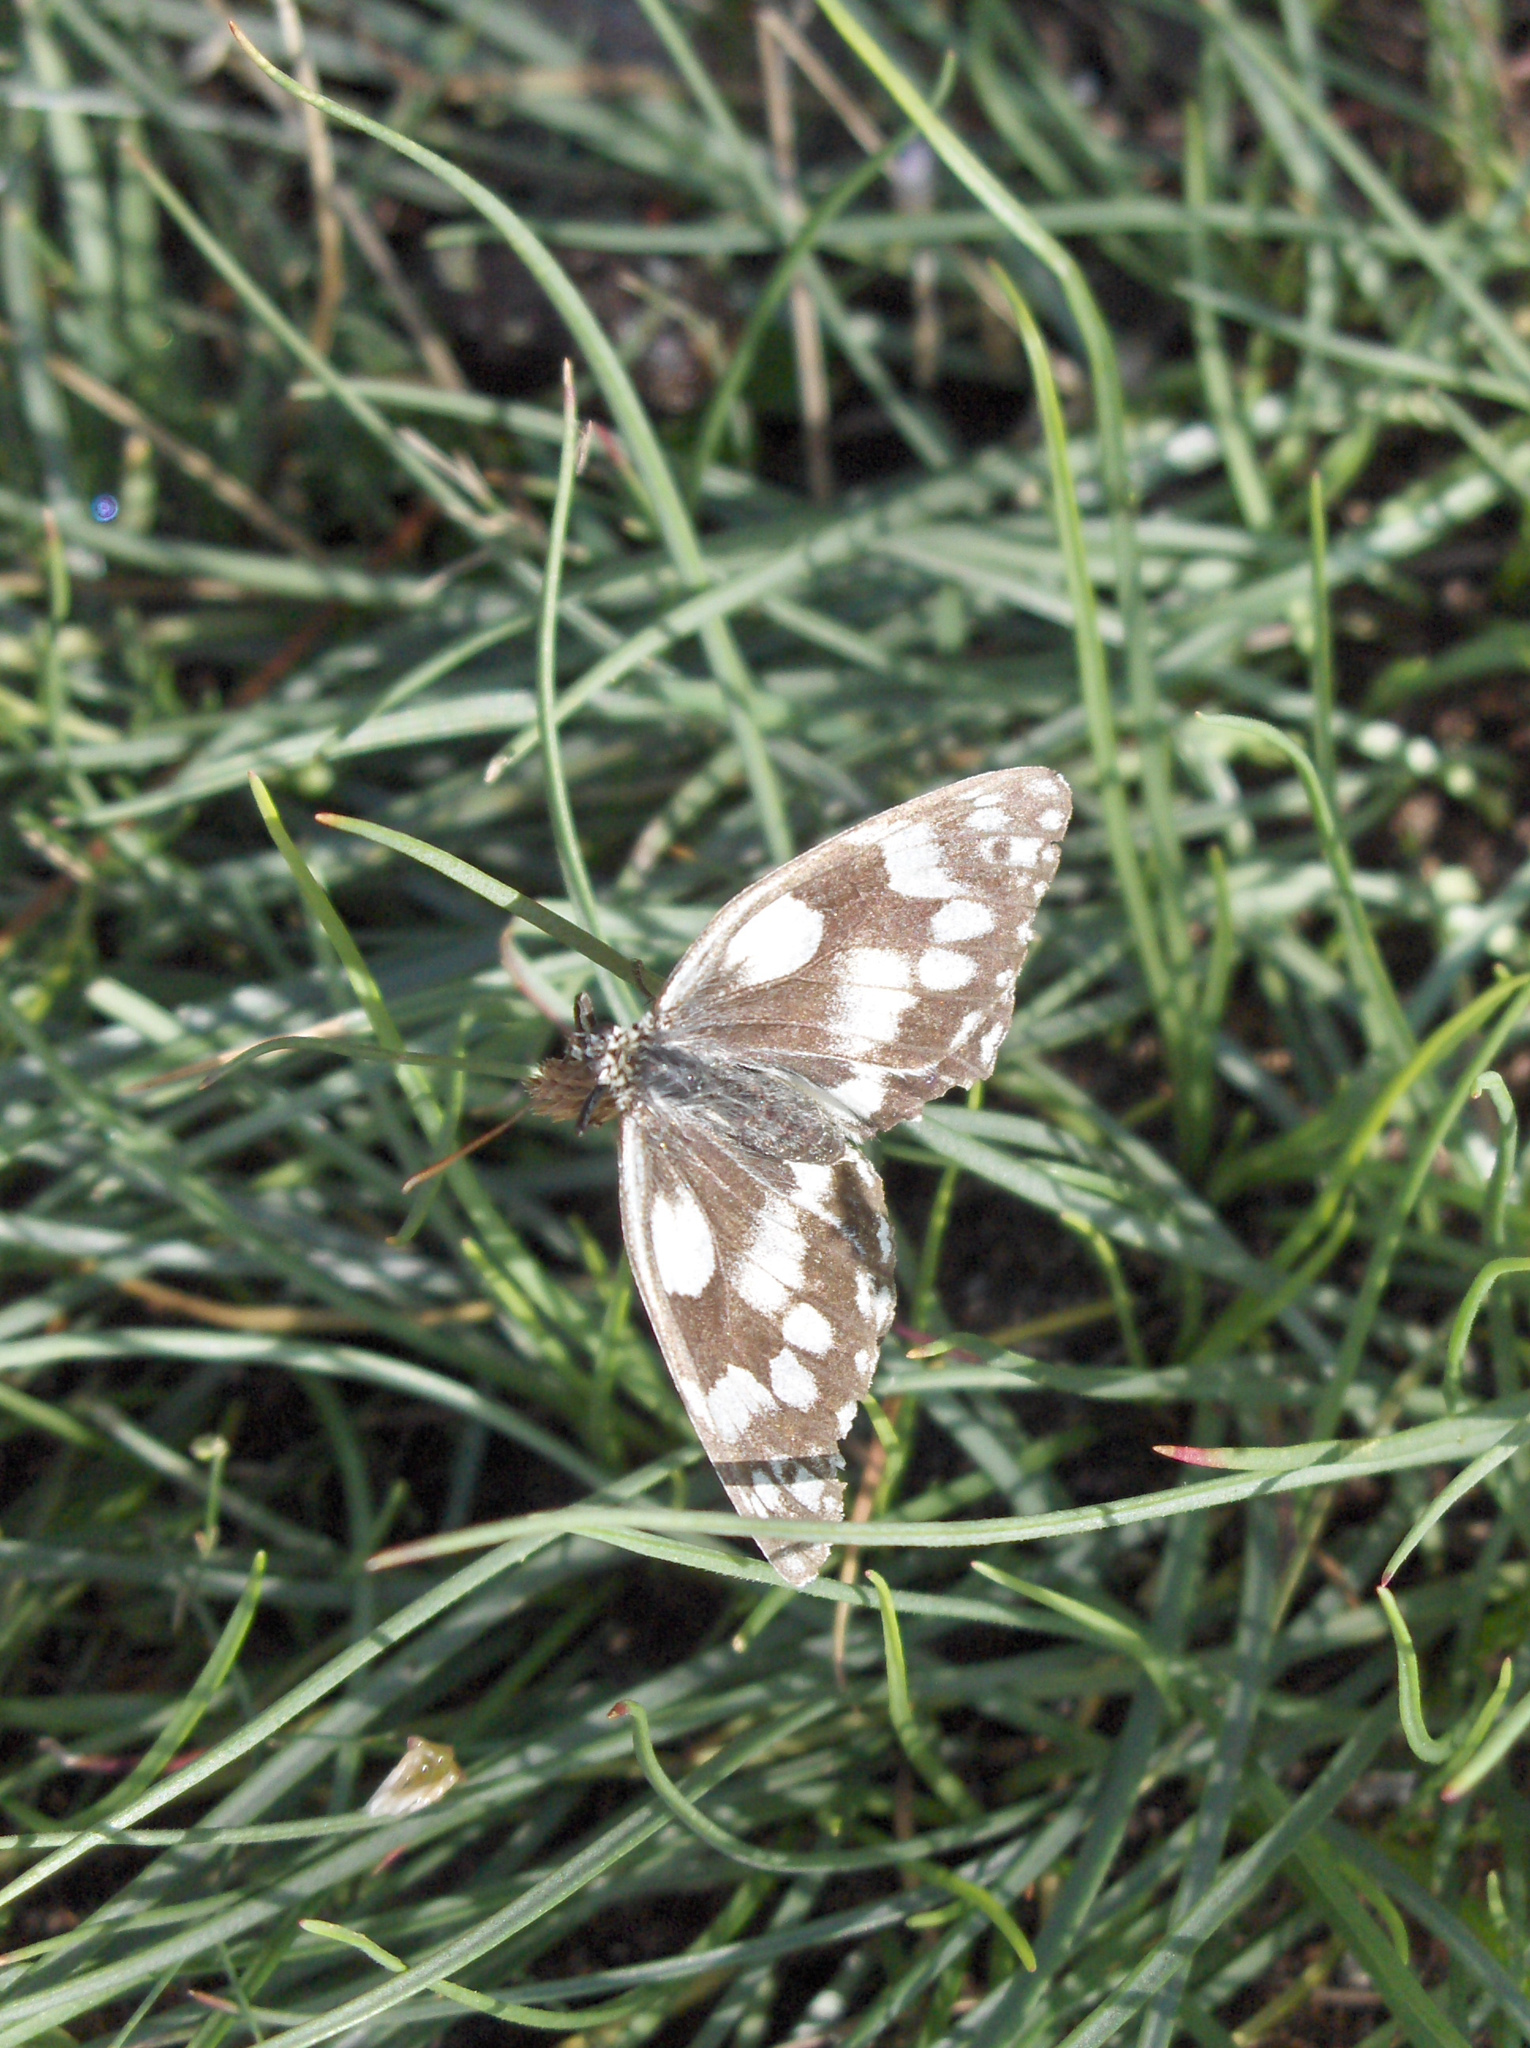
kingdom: Animalia
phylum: Arthropoda
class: Insecta
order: Lepidoptera
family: Nymphalidae
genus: Melanargia
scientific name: Melanargia galathea
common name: Marbled white
